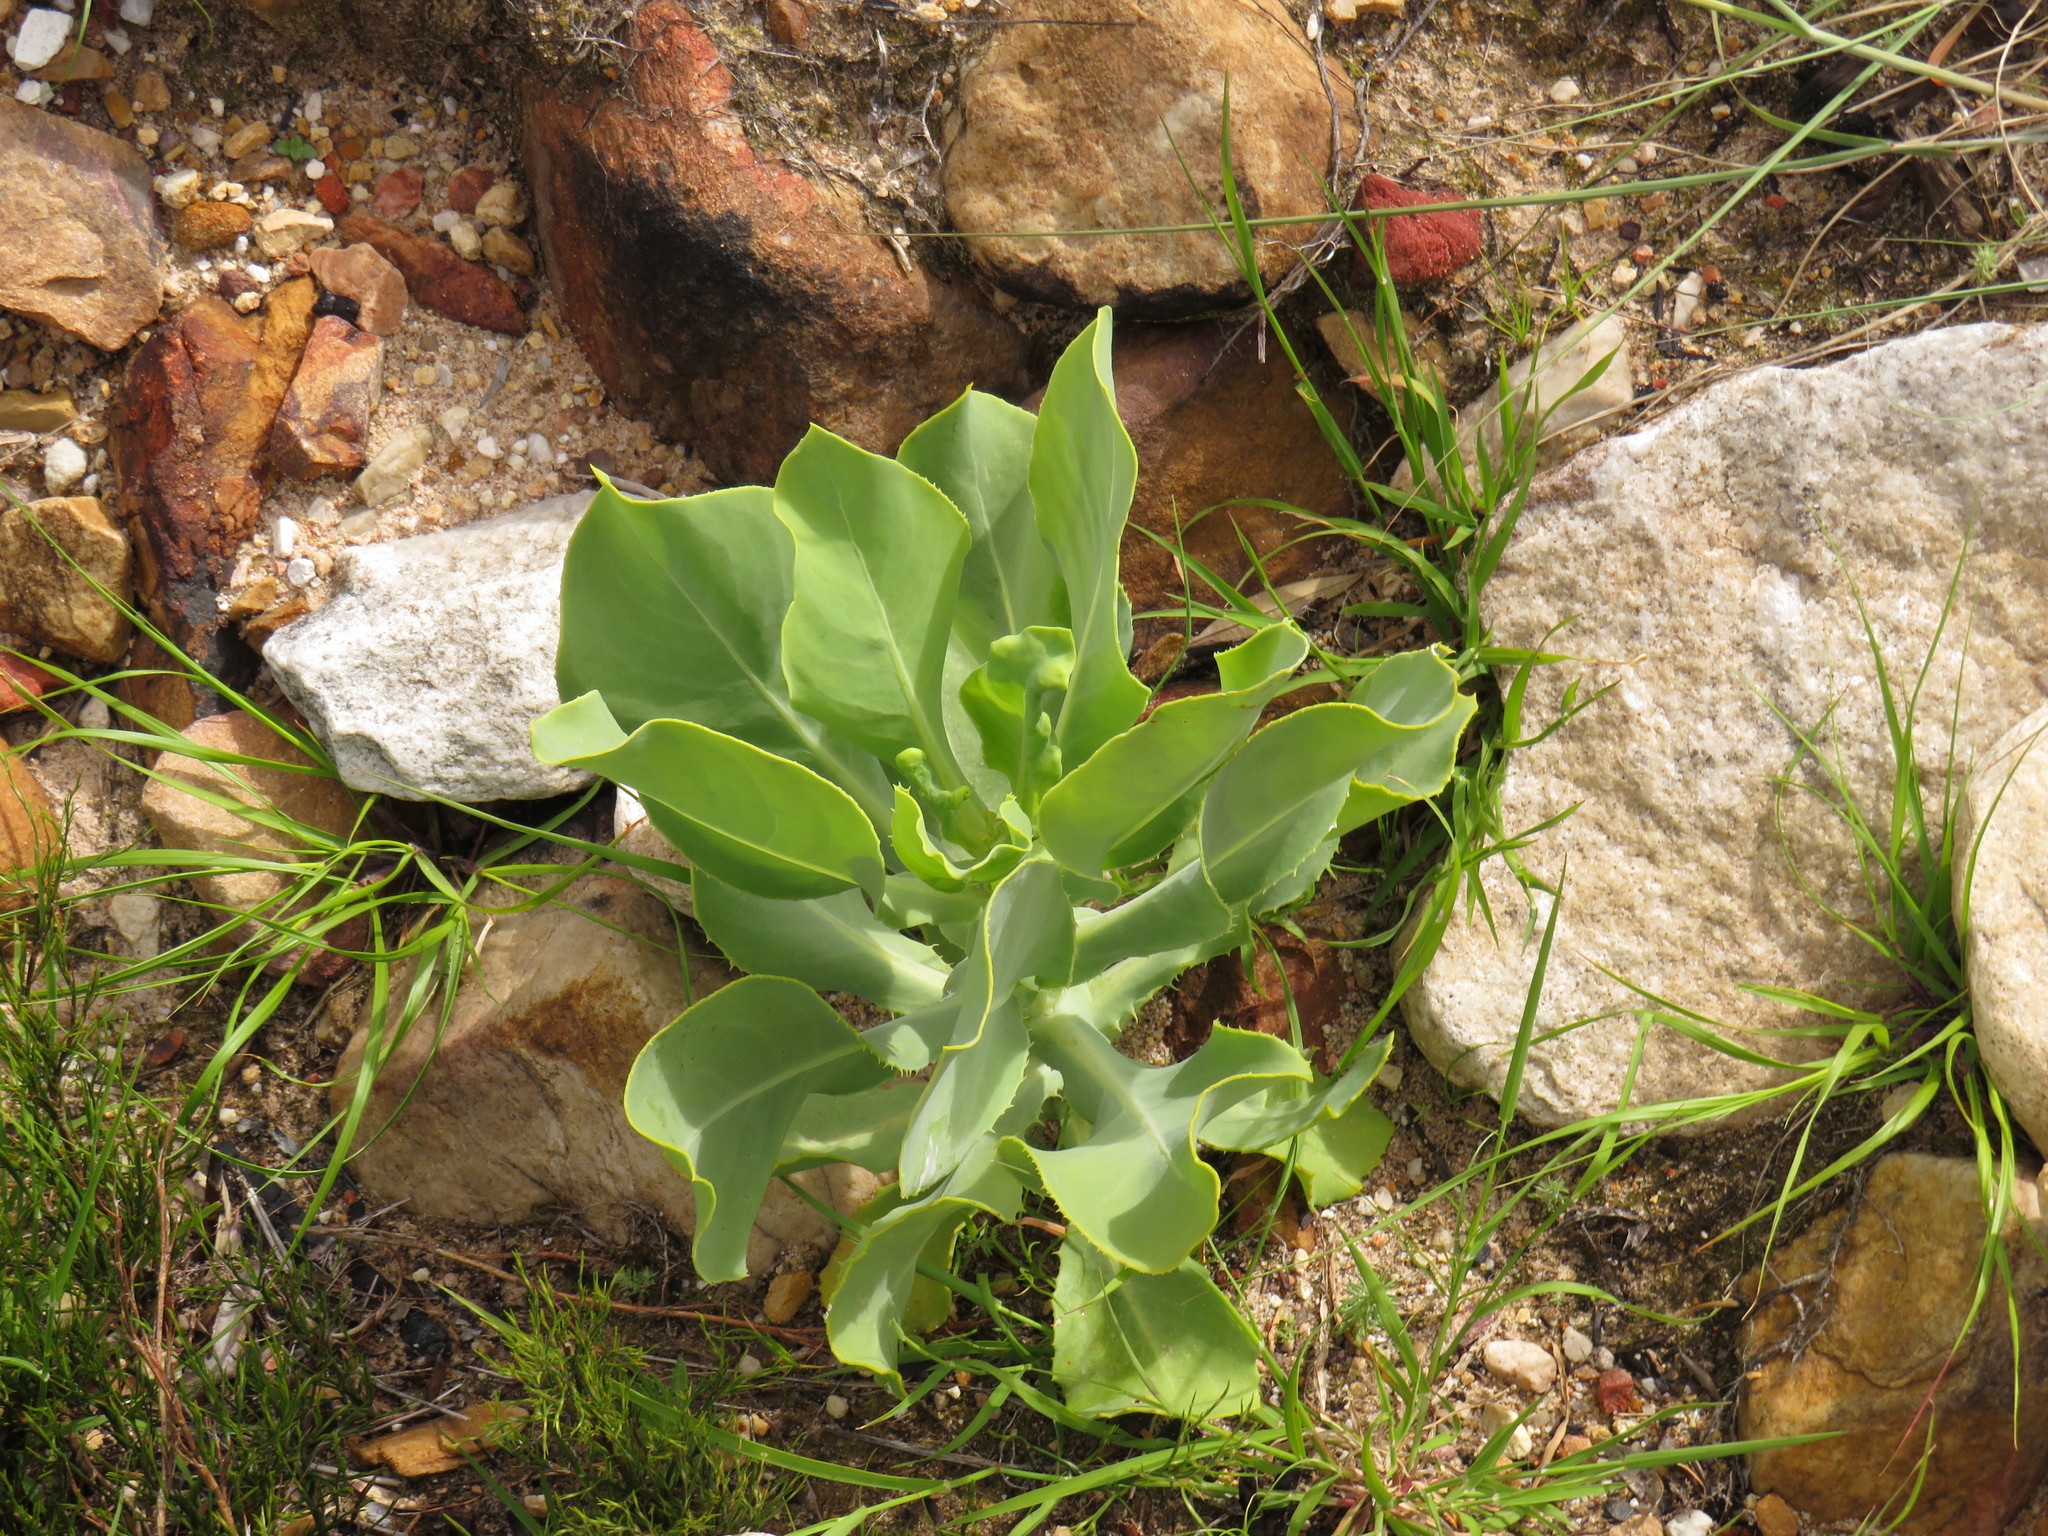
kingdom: Plantae
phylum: Tracheophyta
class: Magnoliopsida
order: Asterales
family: Asteraceae
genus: Othonna
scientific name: Othonna parviflora
